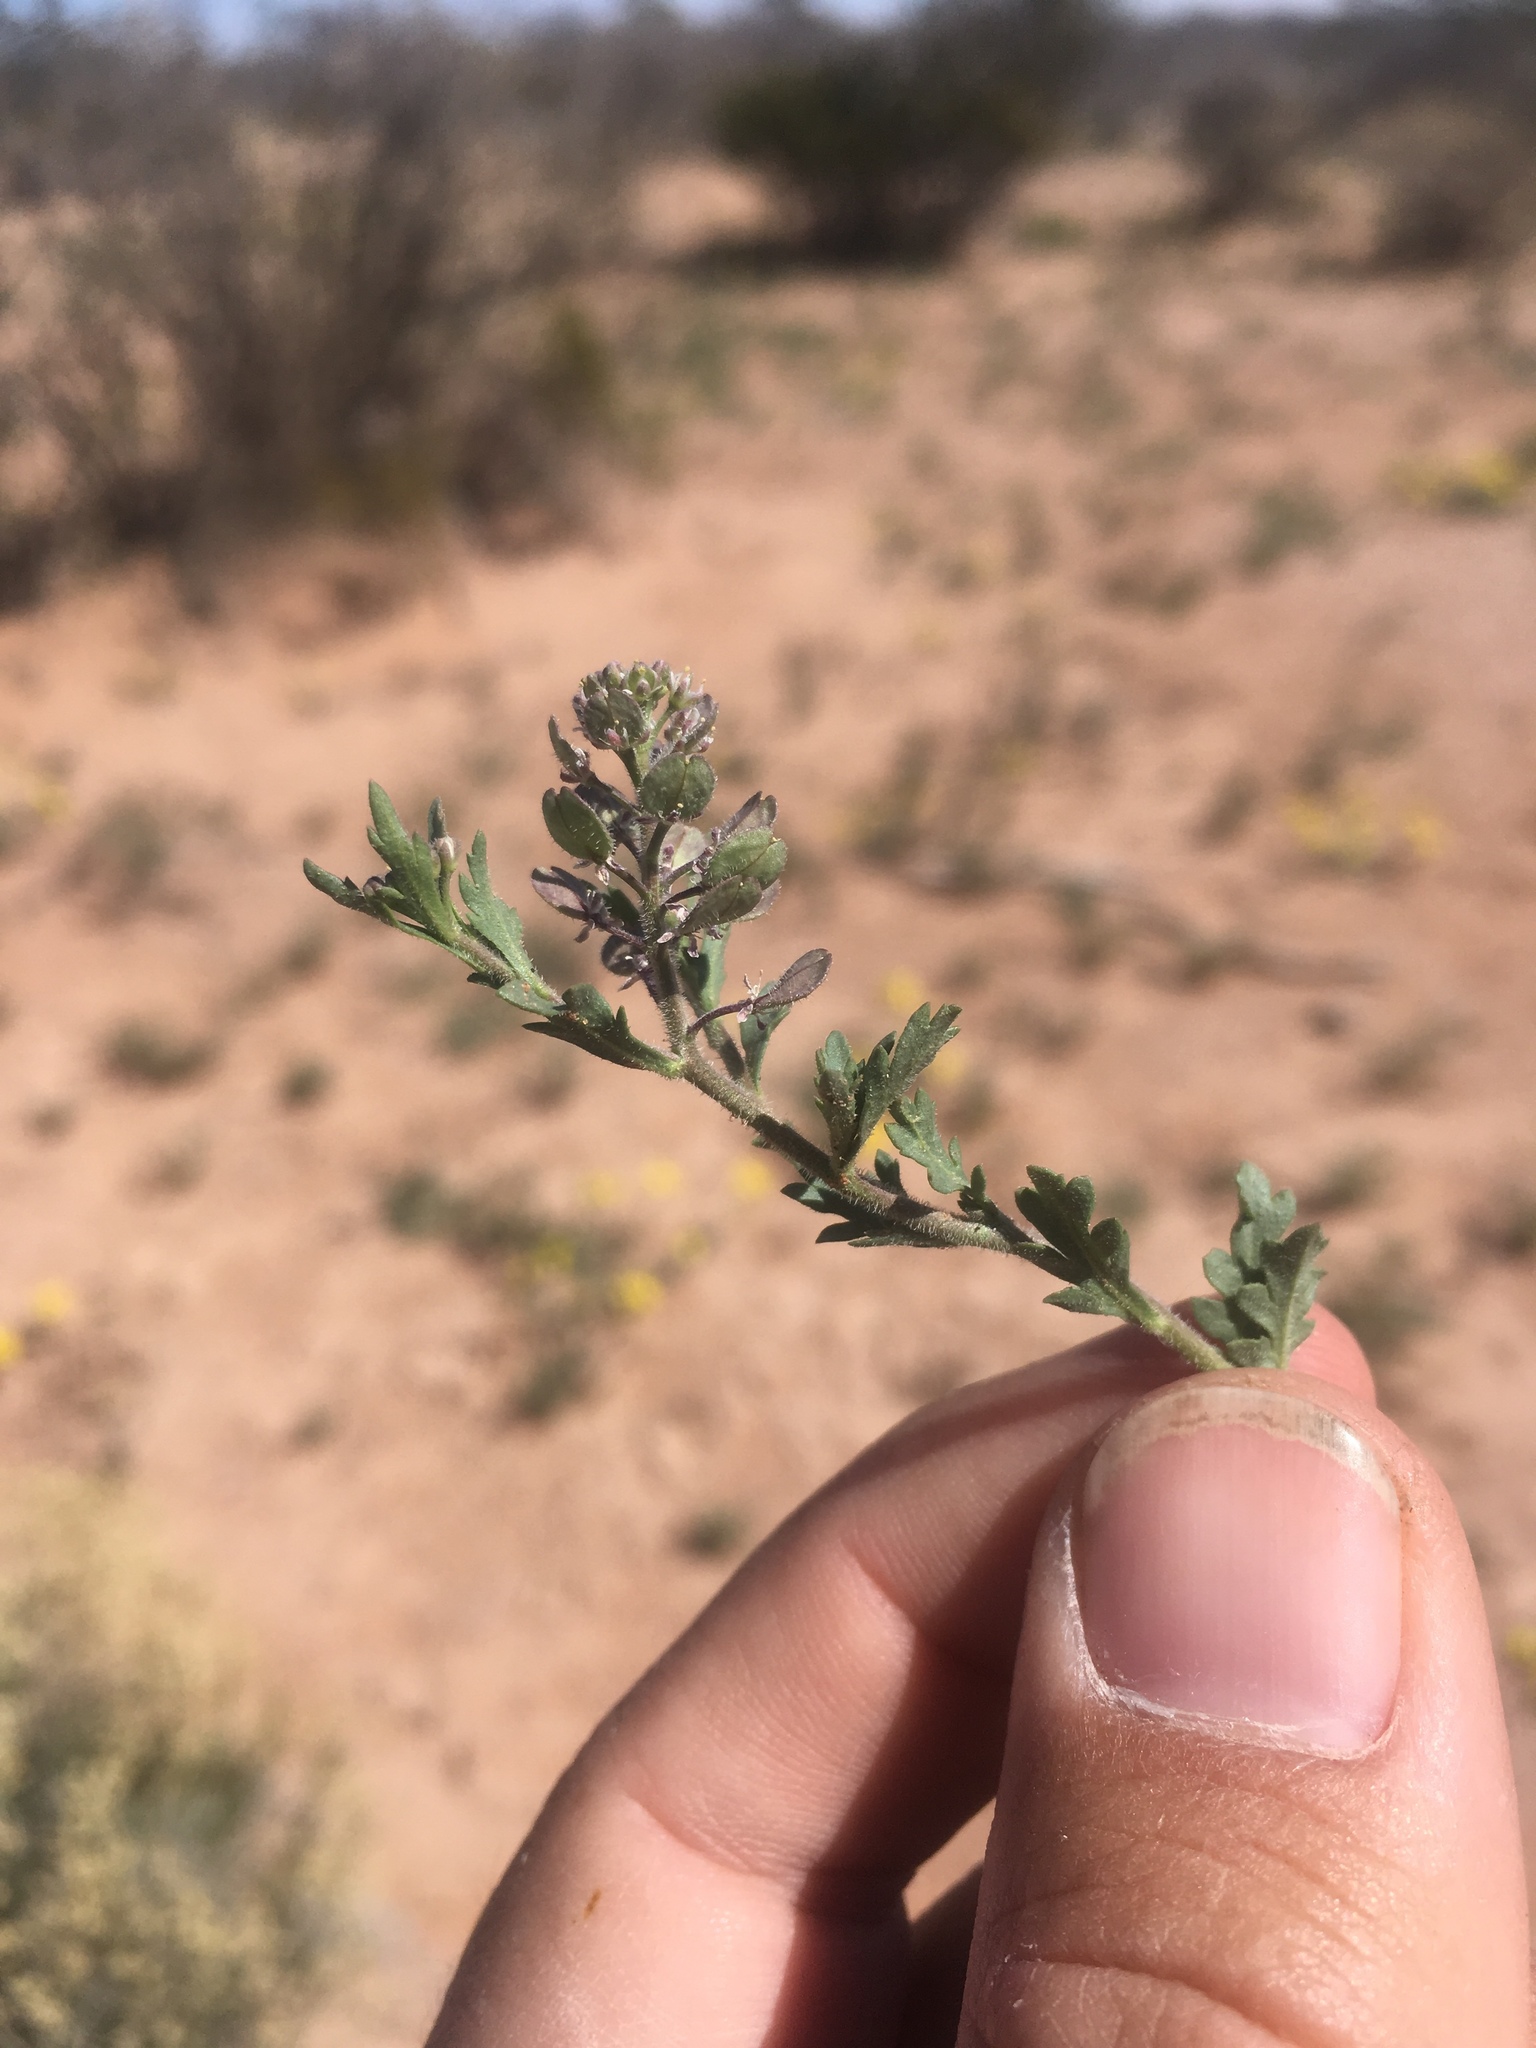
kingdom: Plantae
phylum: Tracheophyta
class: Magnoliopsida
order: Brassicales
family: Brassicaceae
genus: Lepidium
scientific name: Lepidium lasiocarpum
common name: Hairy-pod pepperwort
